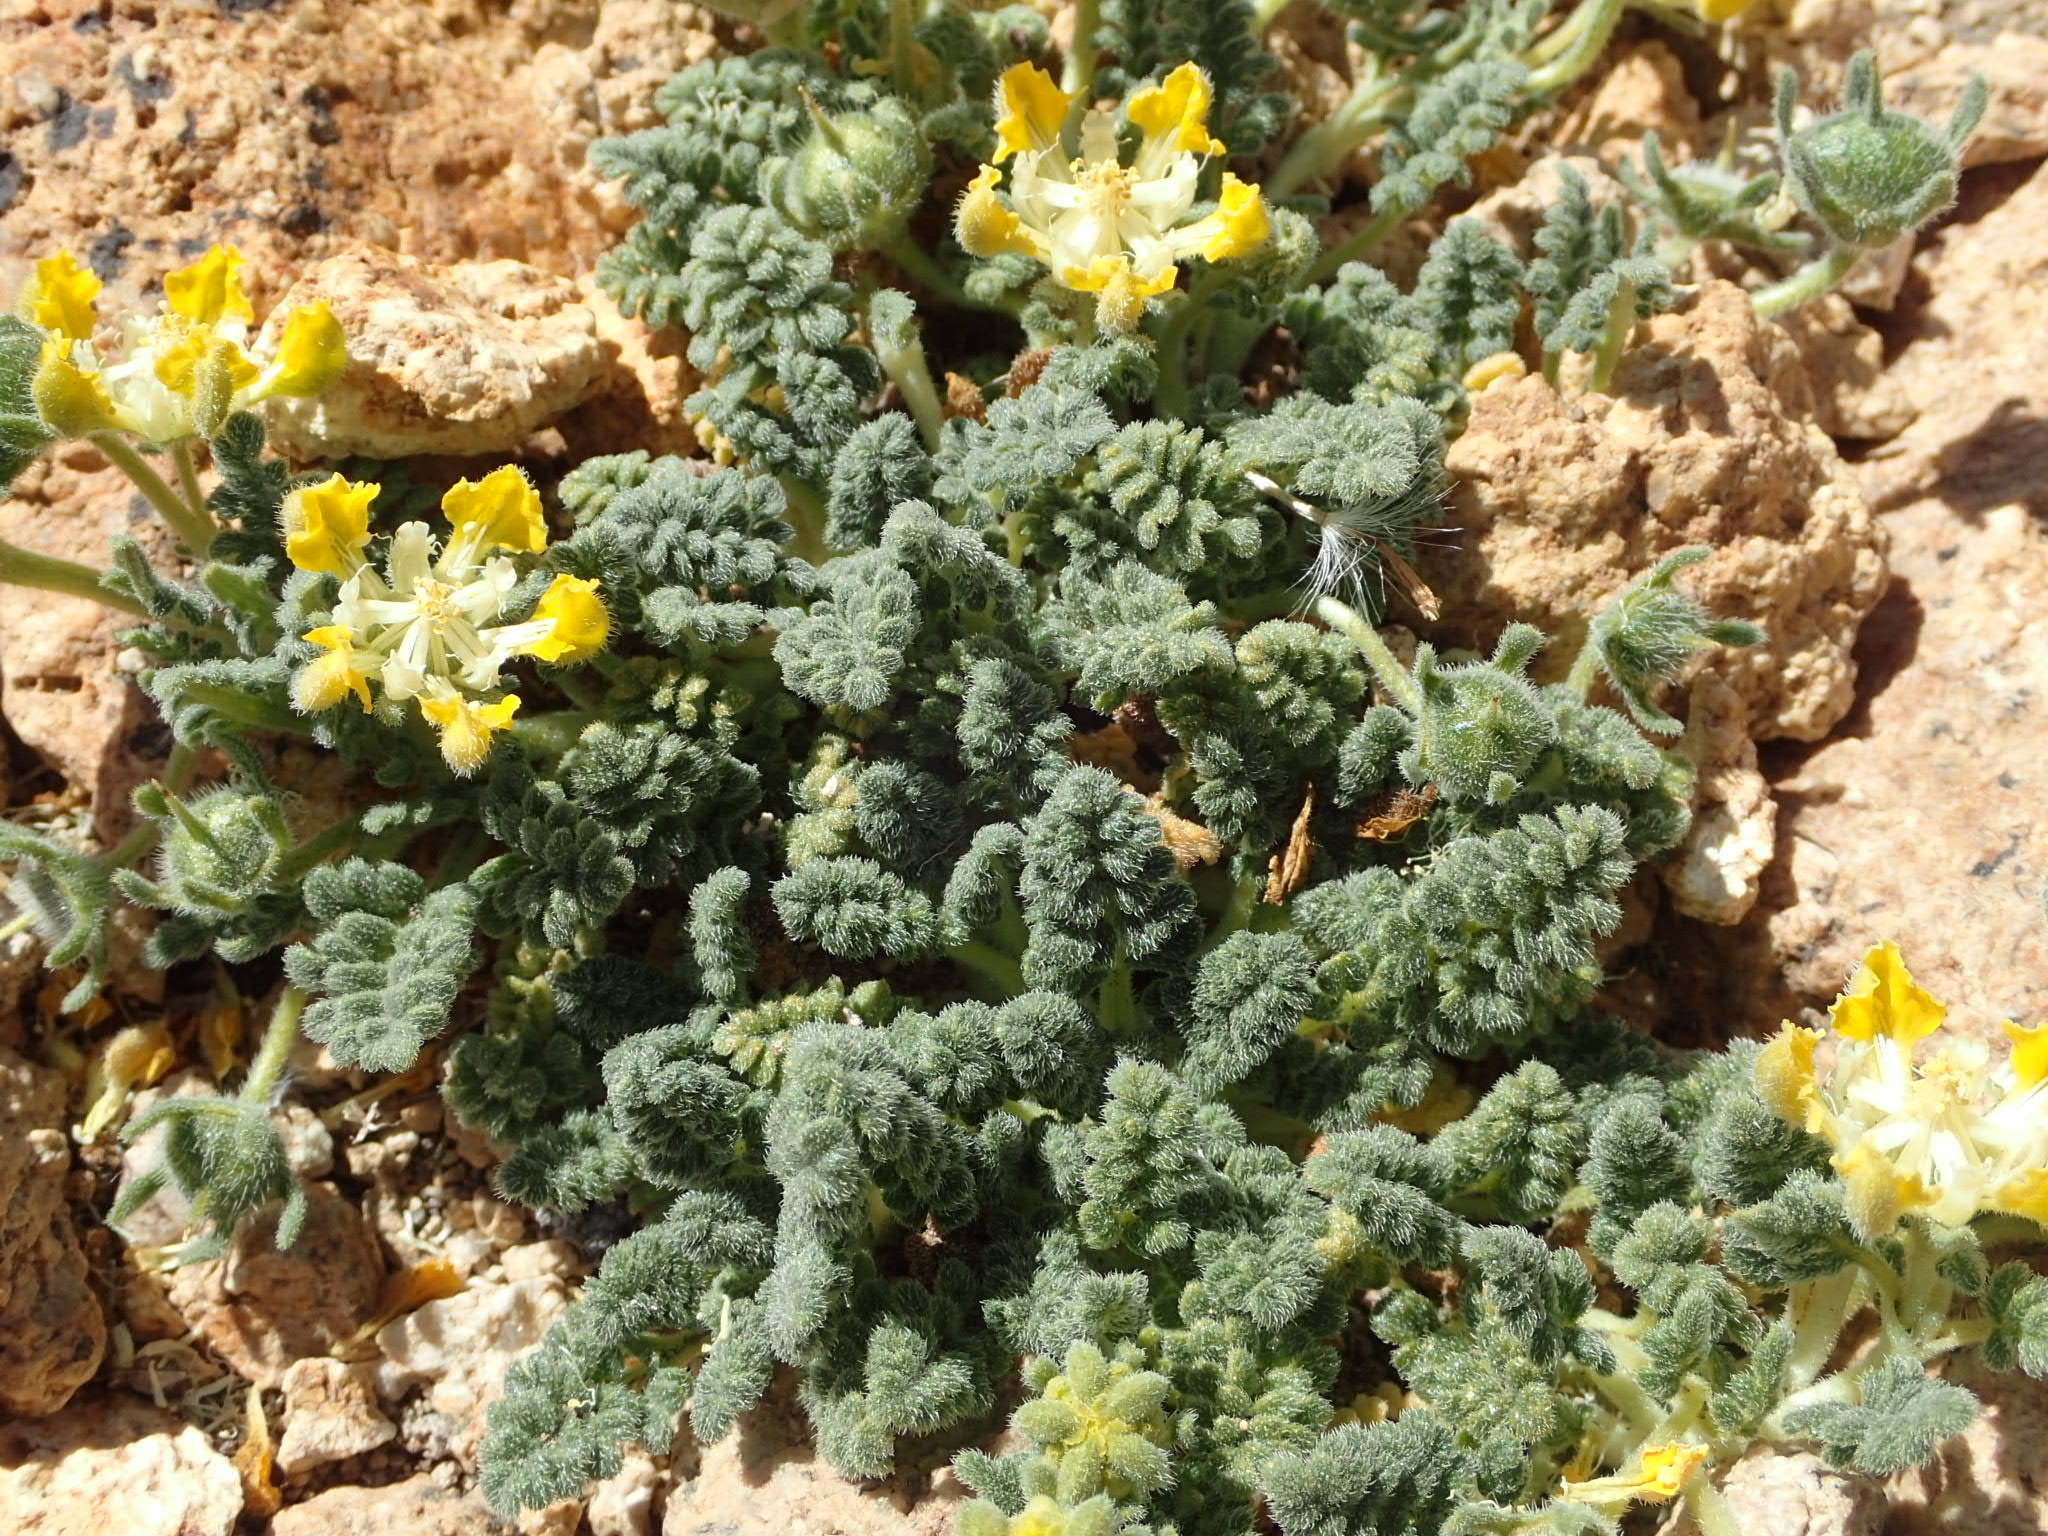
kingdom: Plantae
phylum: Tracheophyta
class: Magnoliopsida
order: Cornales
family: Loasaceae
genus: Pinnasa
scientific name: Pinnasa nana
